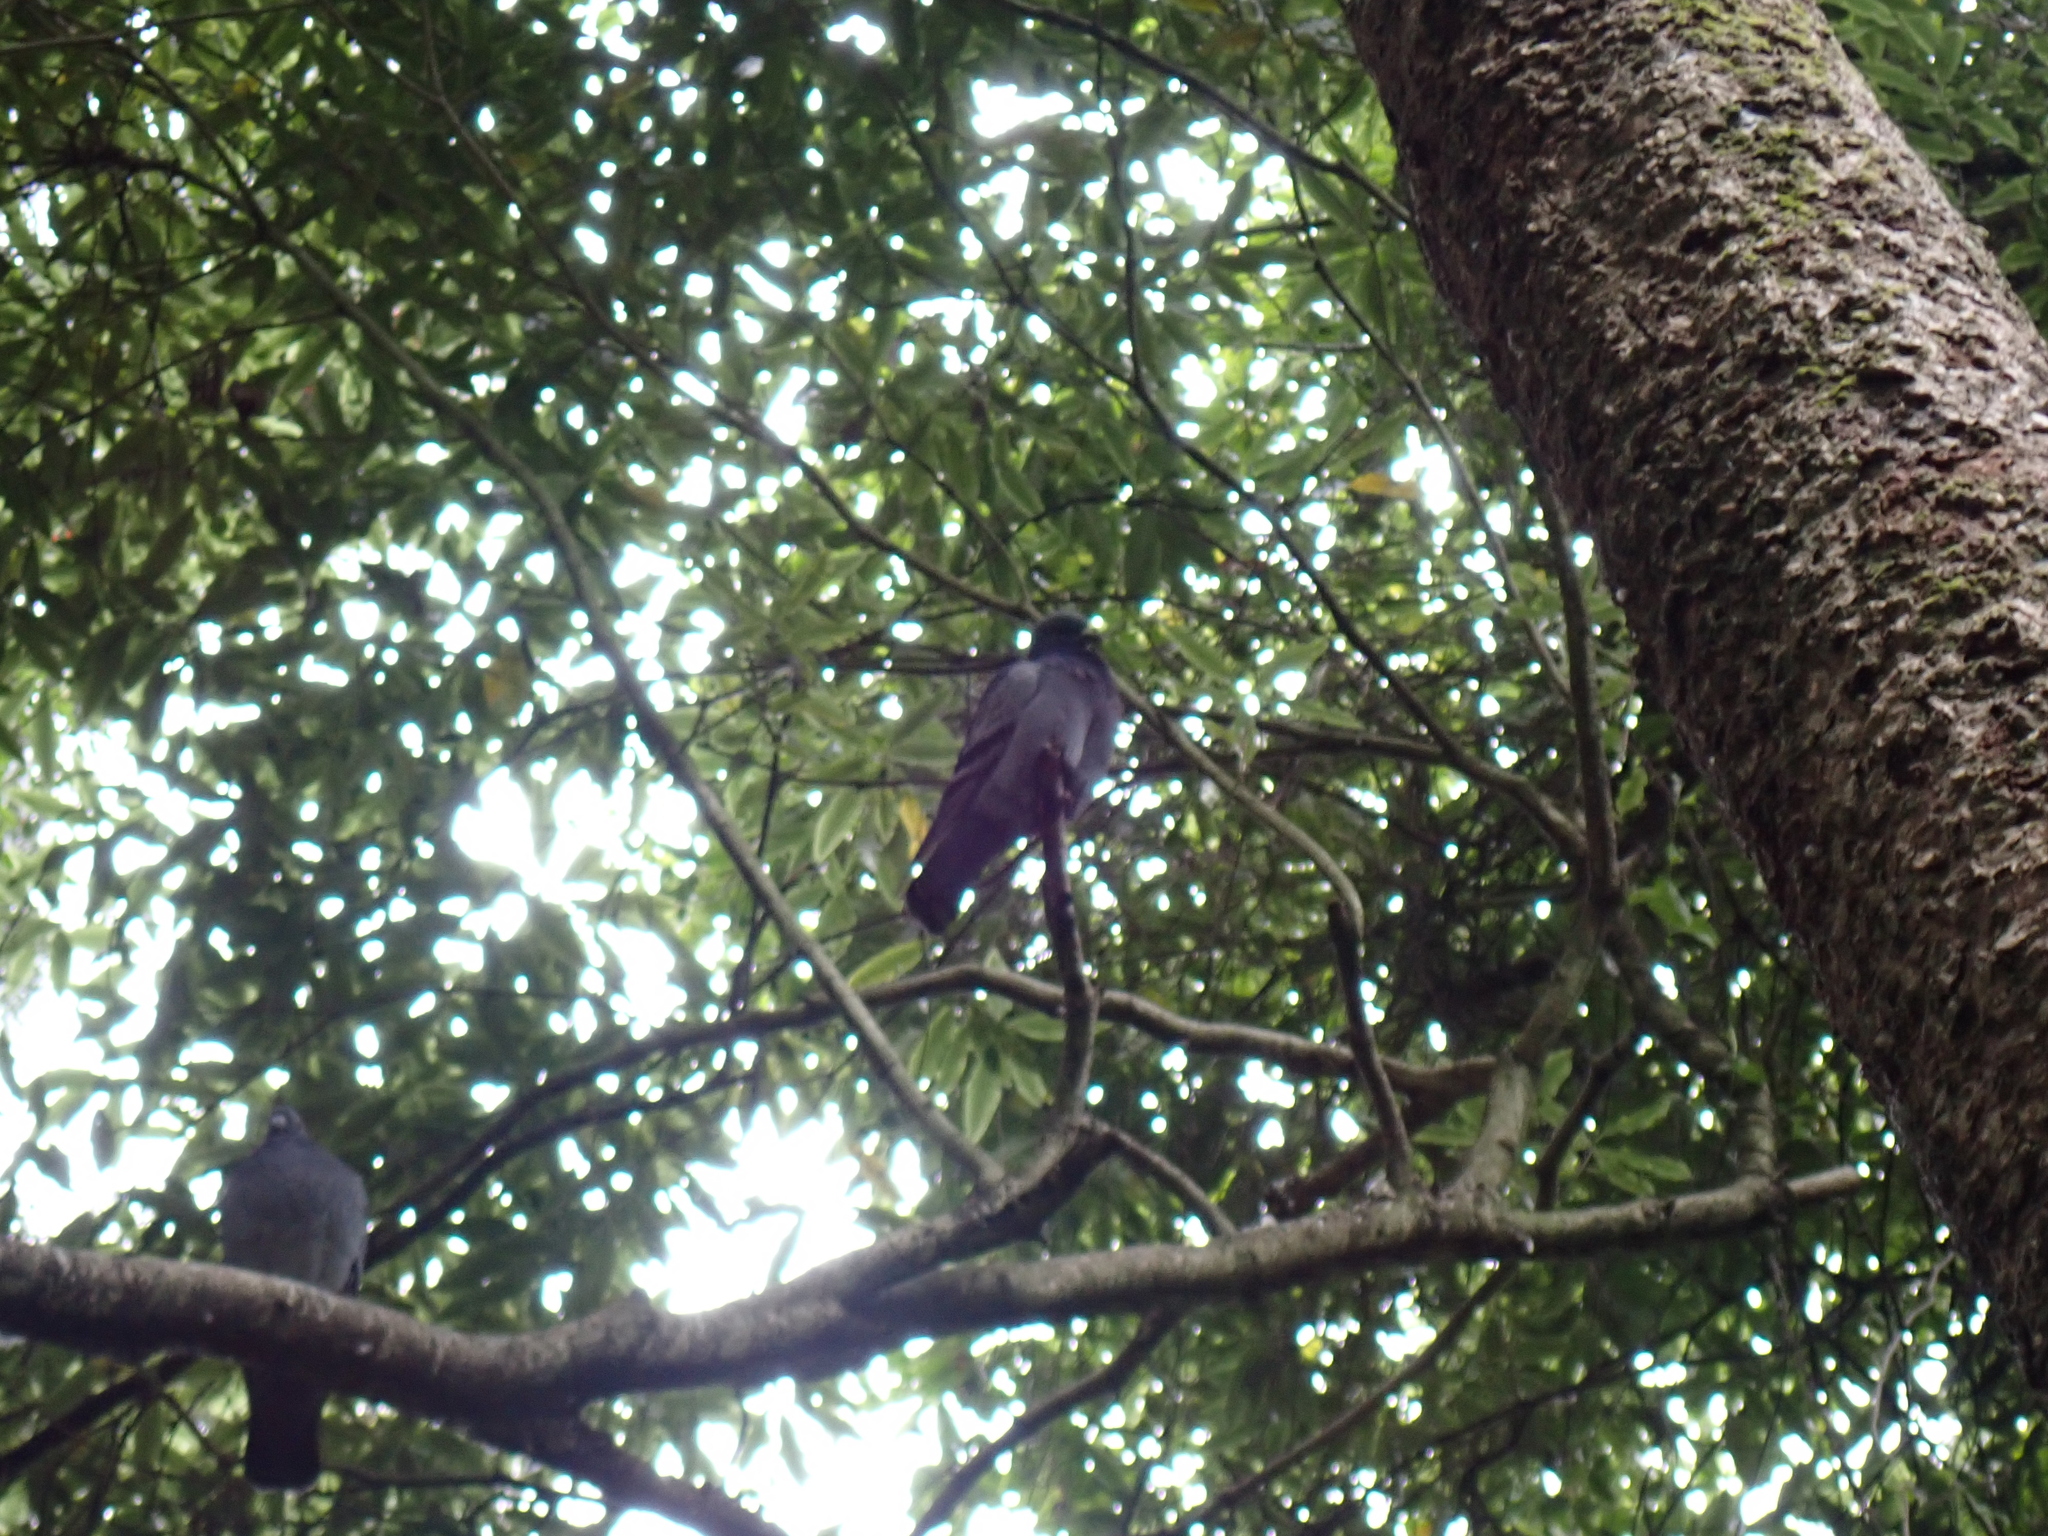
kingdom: Animalia
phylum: Chordata
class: Aves
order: Columbiformes
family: Columbidae
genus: Columba
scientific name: Columba livia
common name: Rock pigeon
